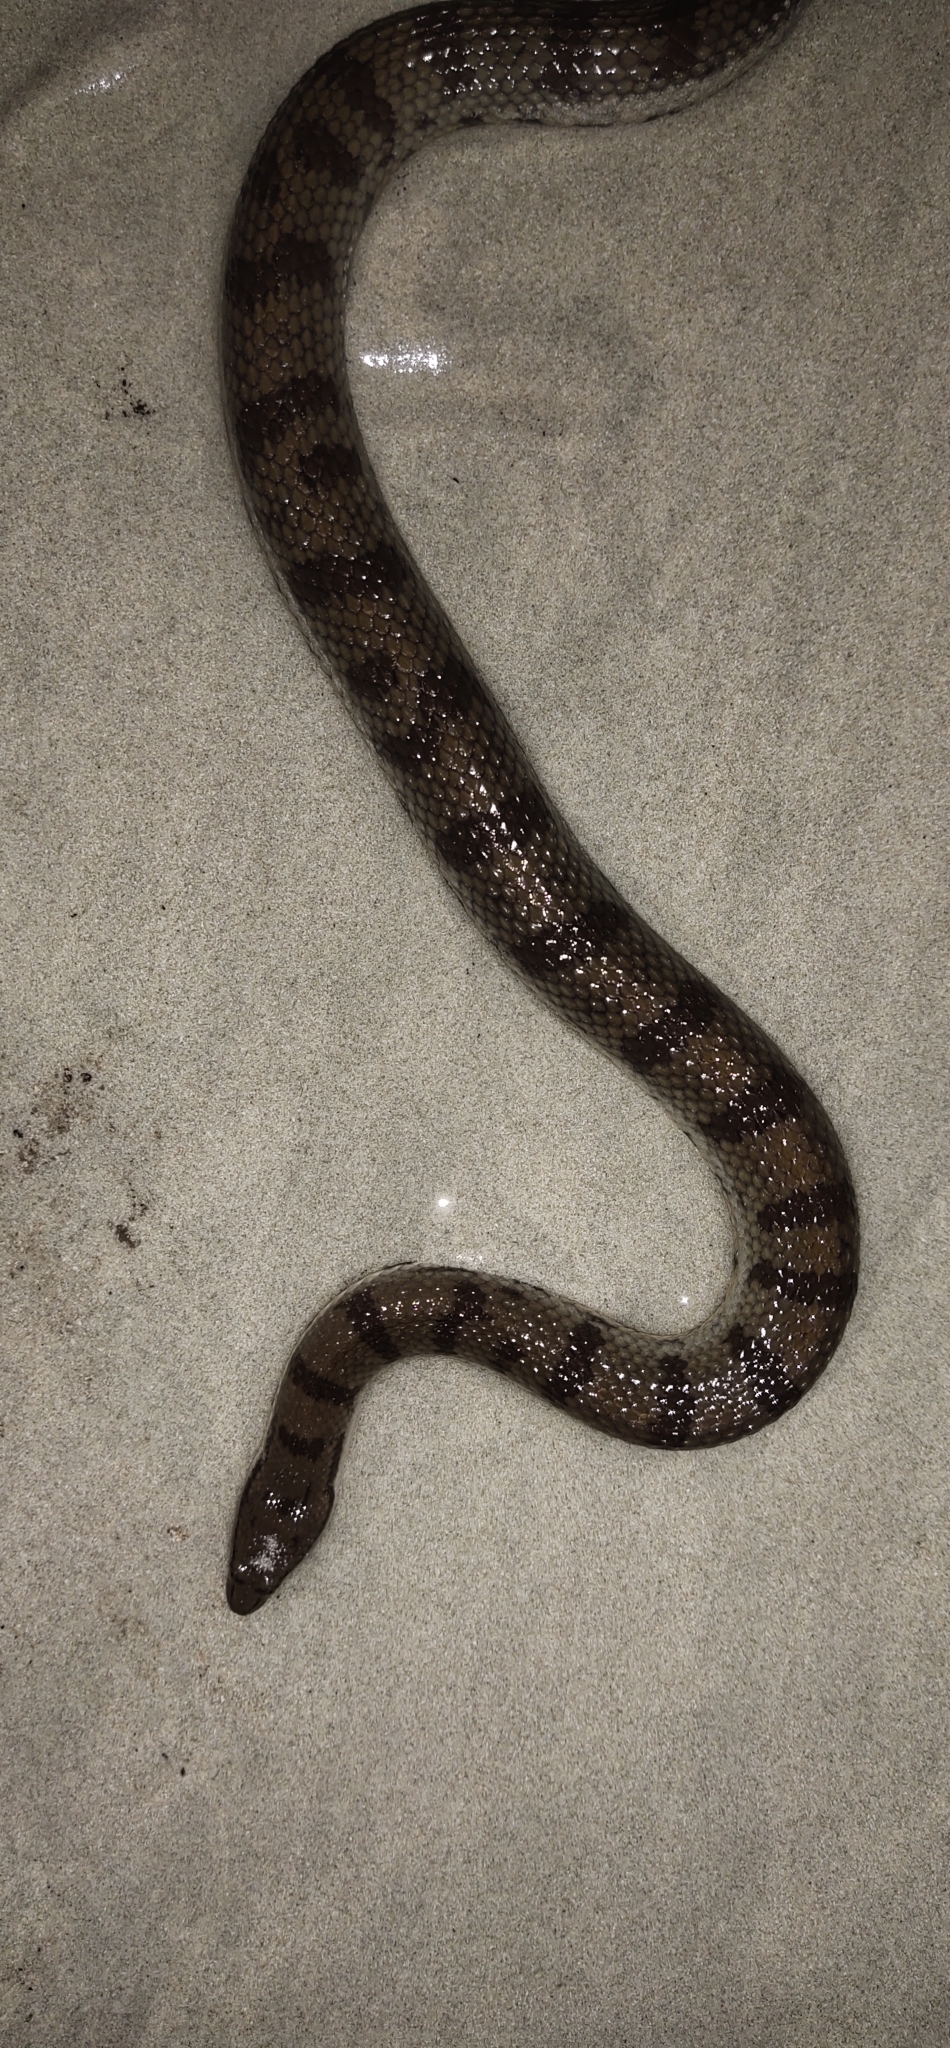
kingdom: Animalia
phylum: Chordata
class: Squamata
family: Homalopsidae
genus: Cerberus
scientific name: Cerberus rynchops
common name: Dog-faced water snake
